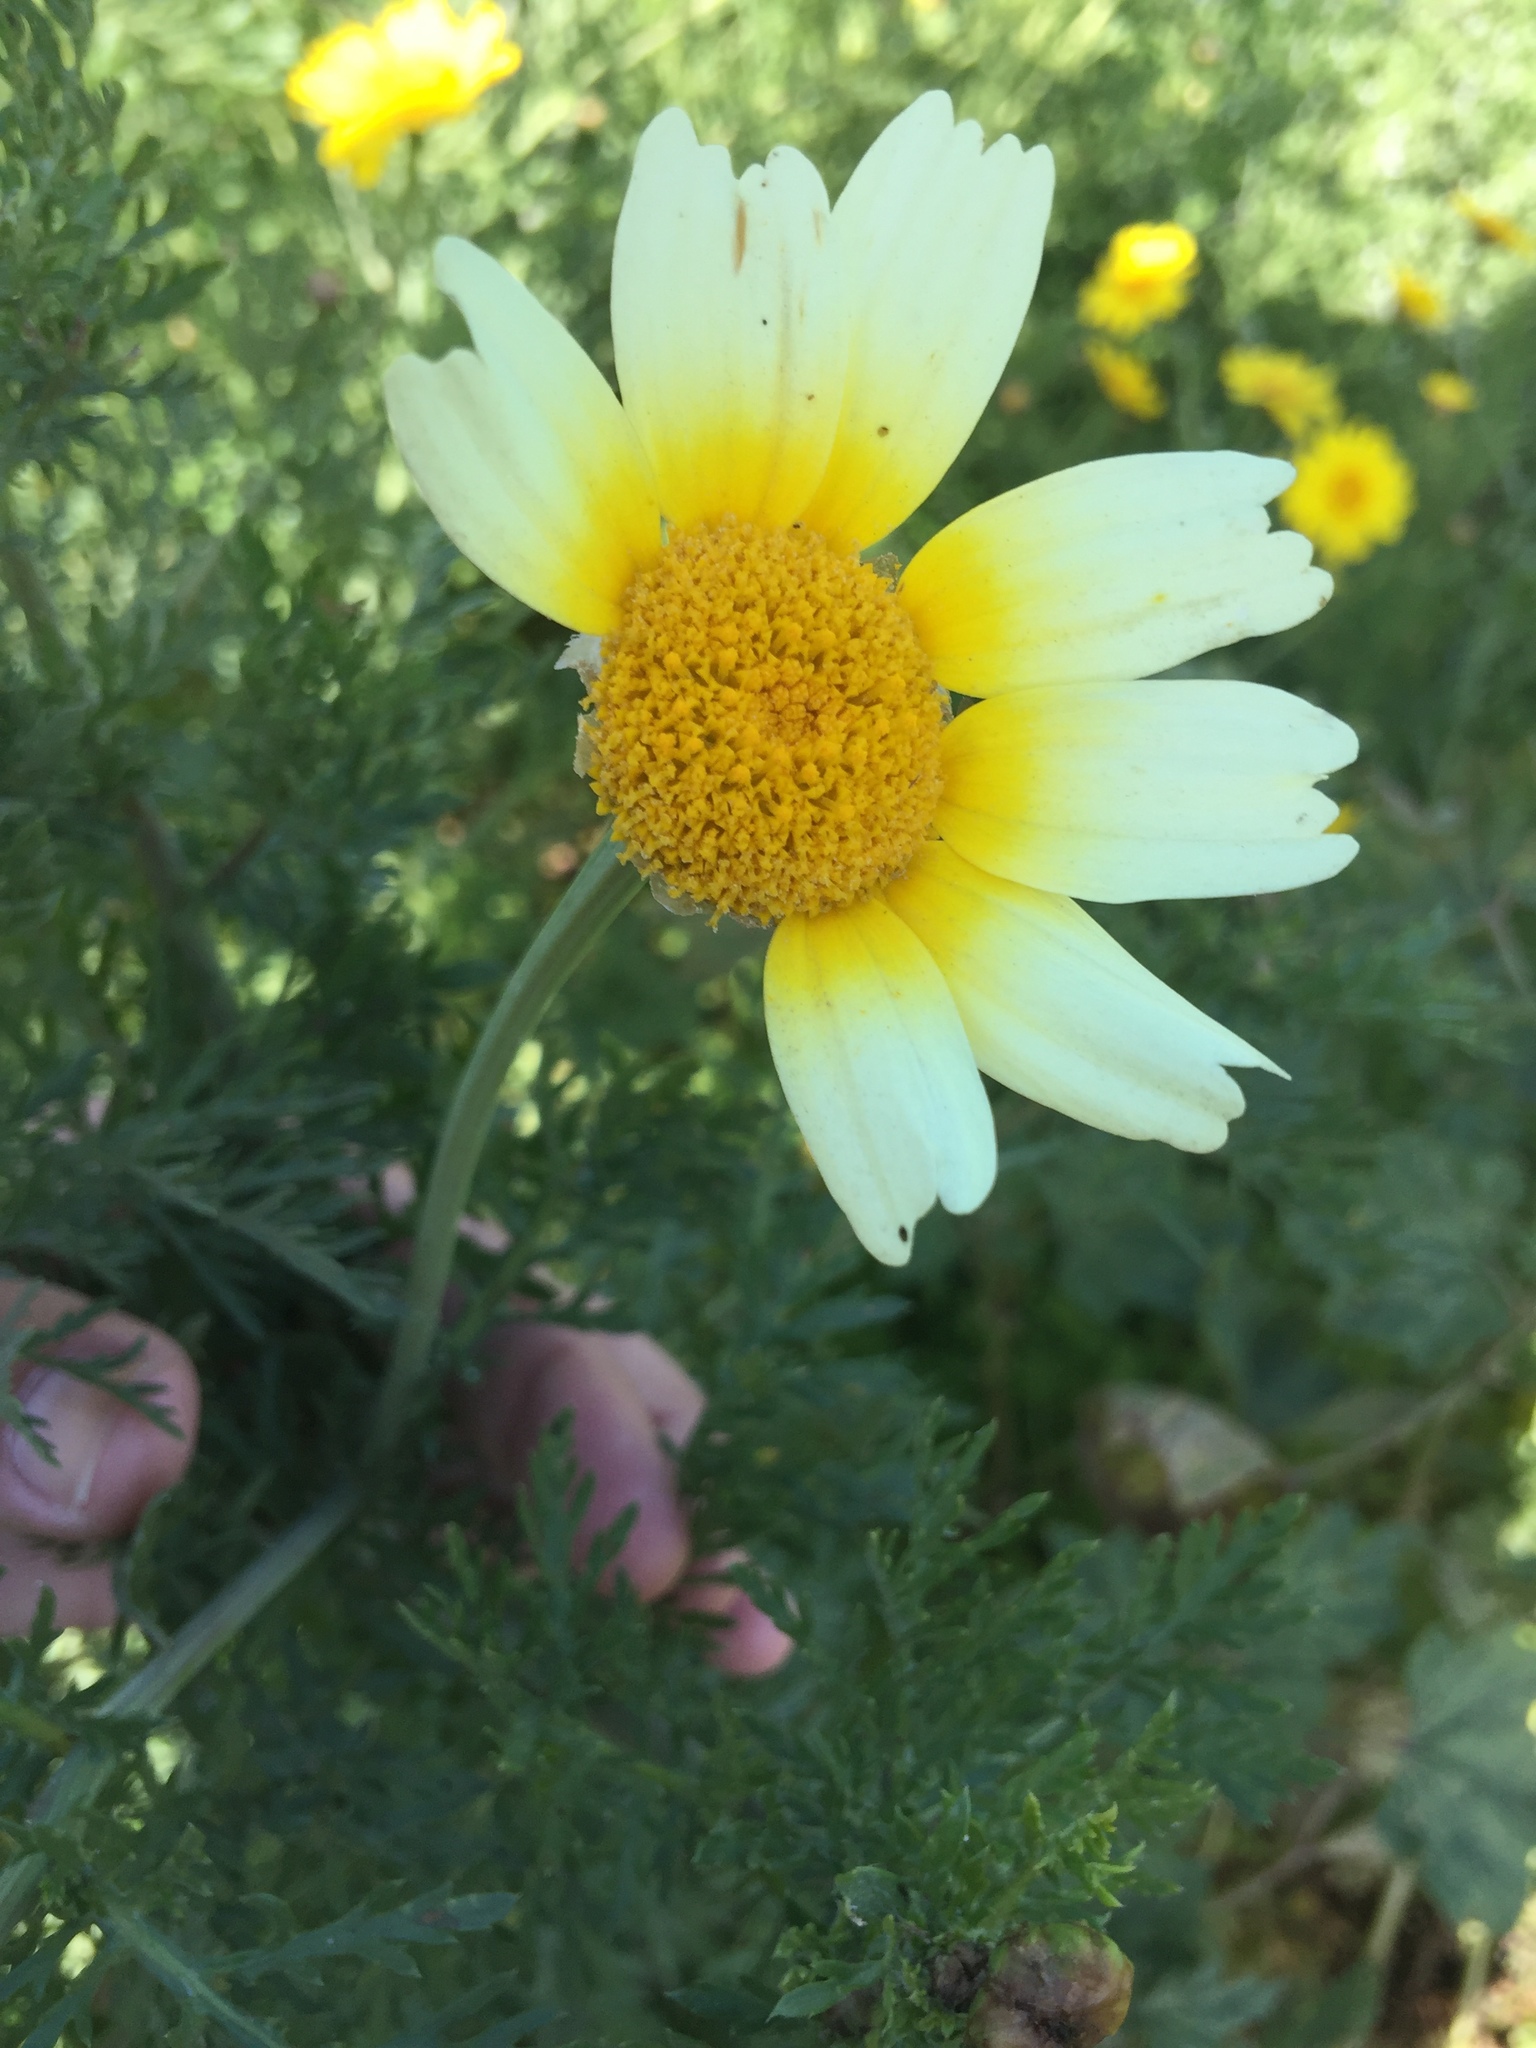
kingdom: Plantae
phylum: Tracheophyta
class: Magnoliopsida
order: Asterales
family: Asteraceae
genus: Glebionis
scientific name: Glebionis coronaria
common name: Crowndaisy
